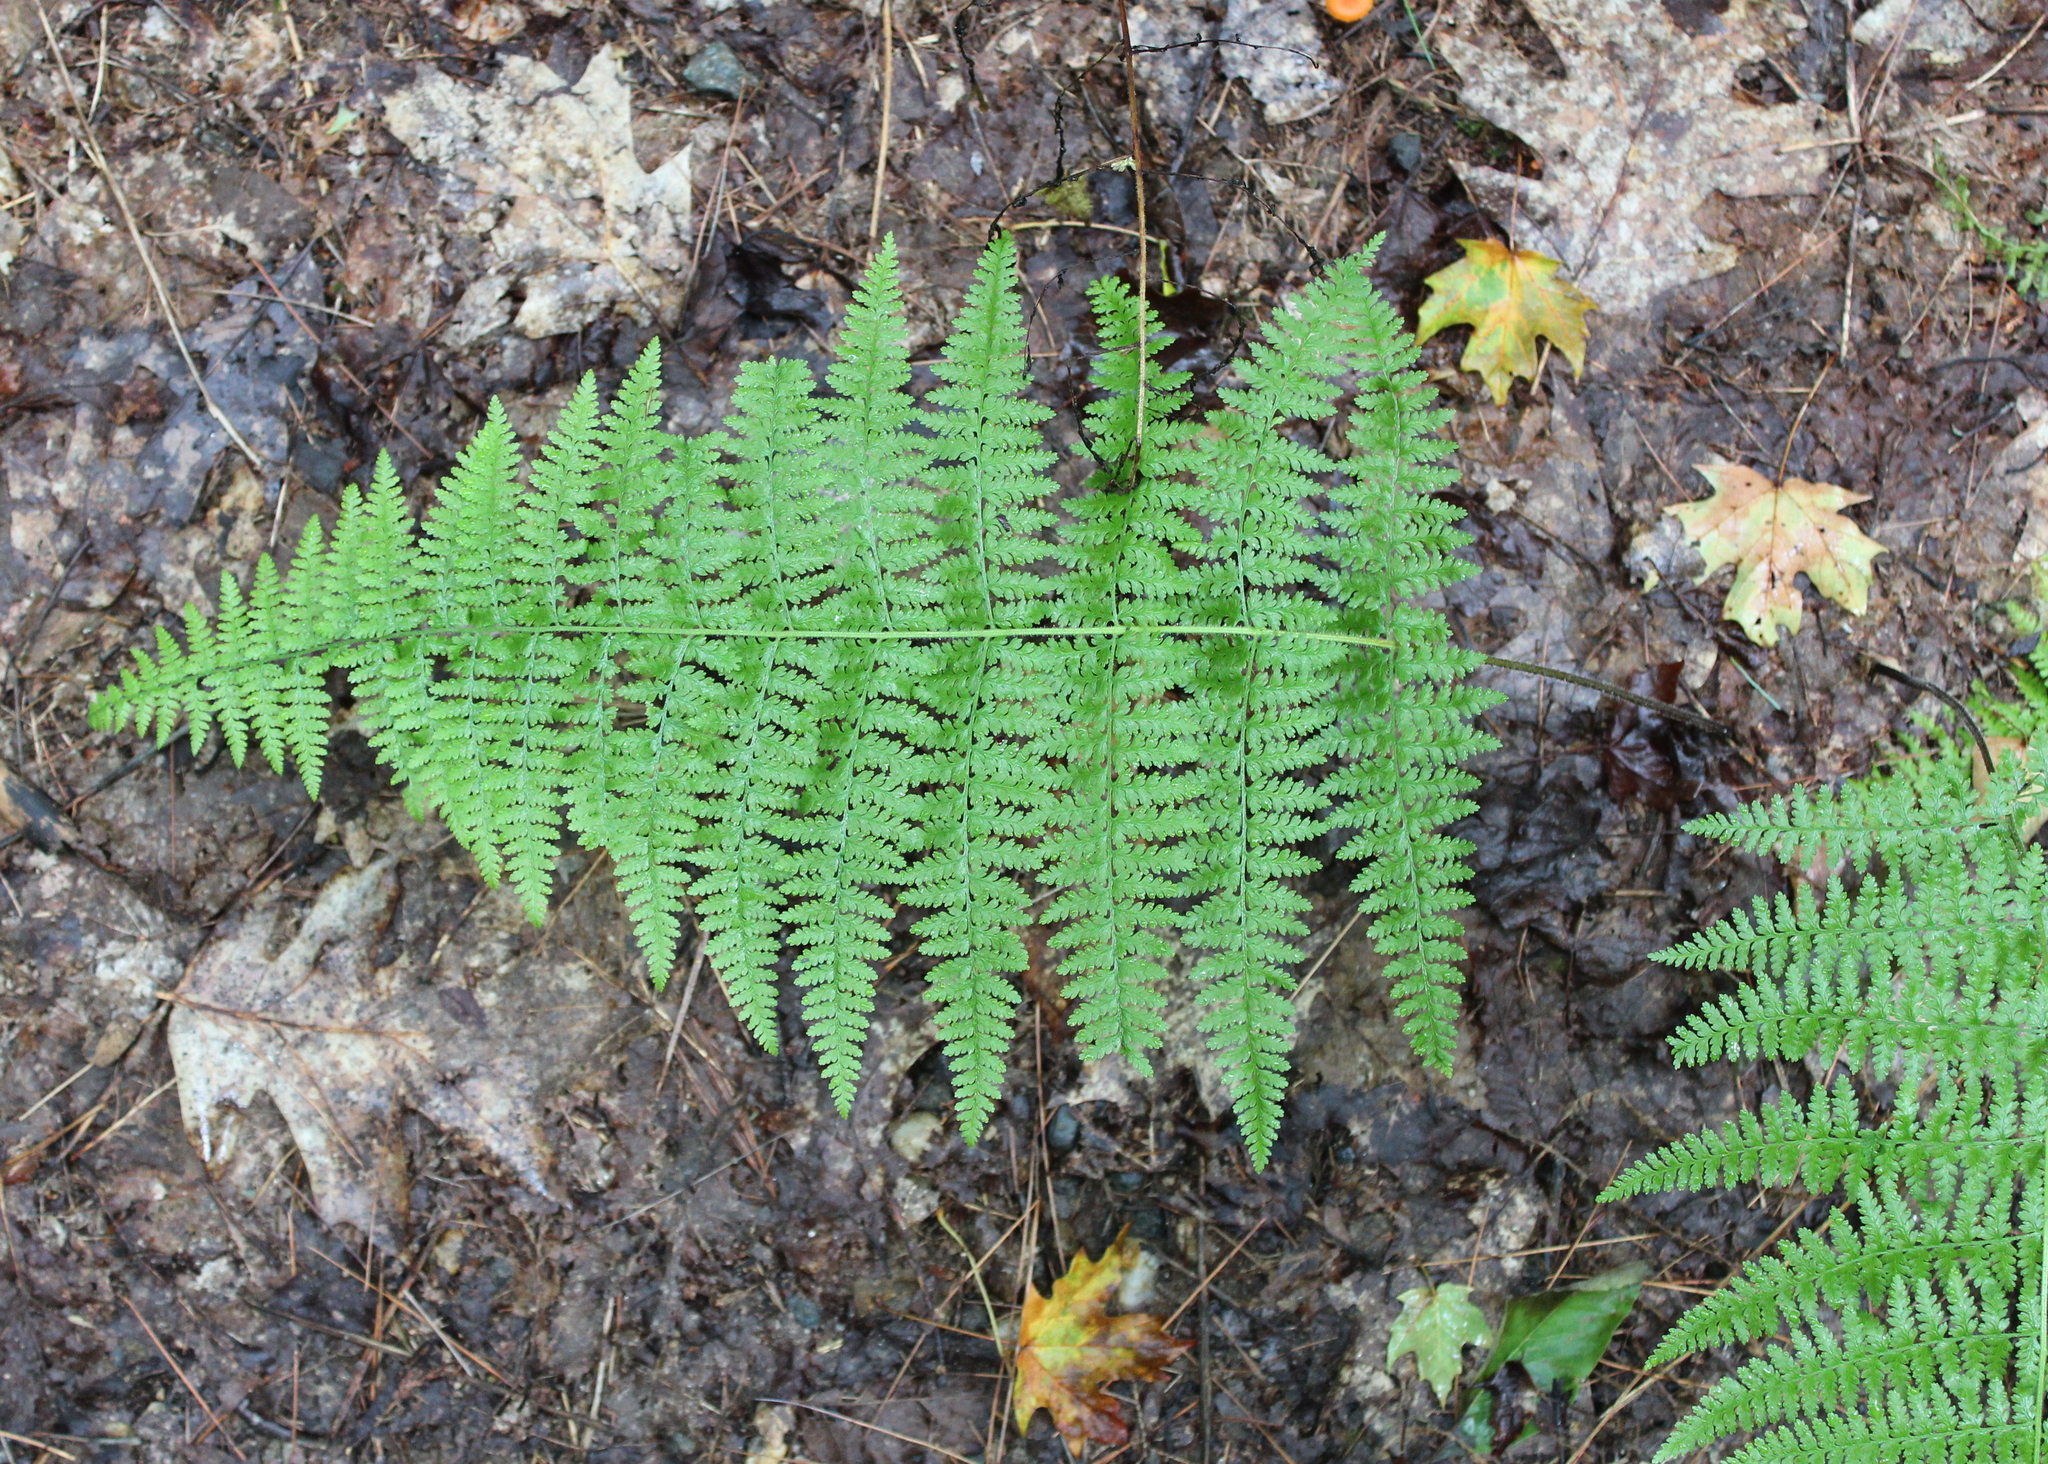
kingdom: Plantae
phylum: Tracheophyta
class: Polypodiopsida
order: Polypodiales
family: Dryopteridaceae
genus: Dryopteris
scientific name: Dryopteris intermedia
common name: Evergreen wood fern
